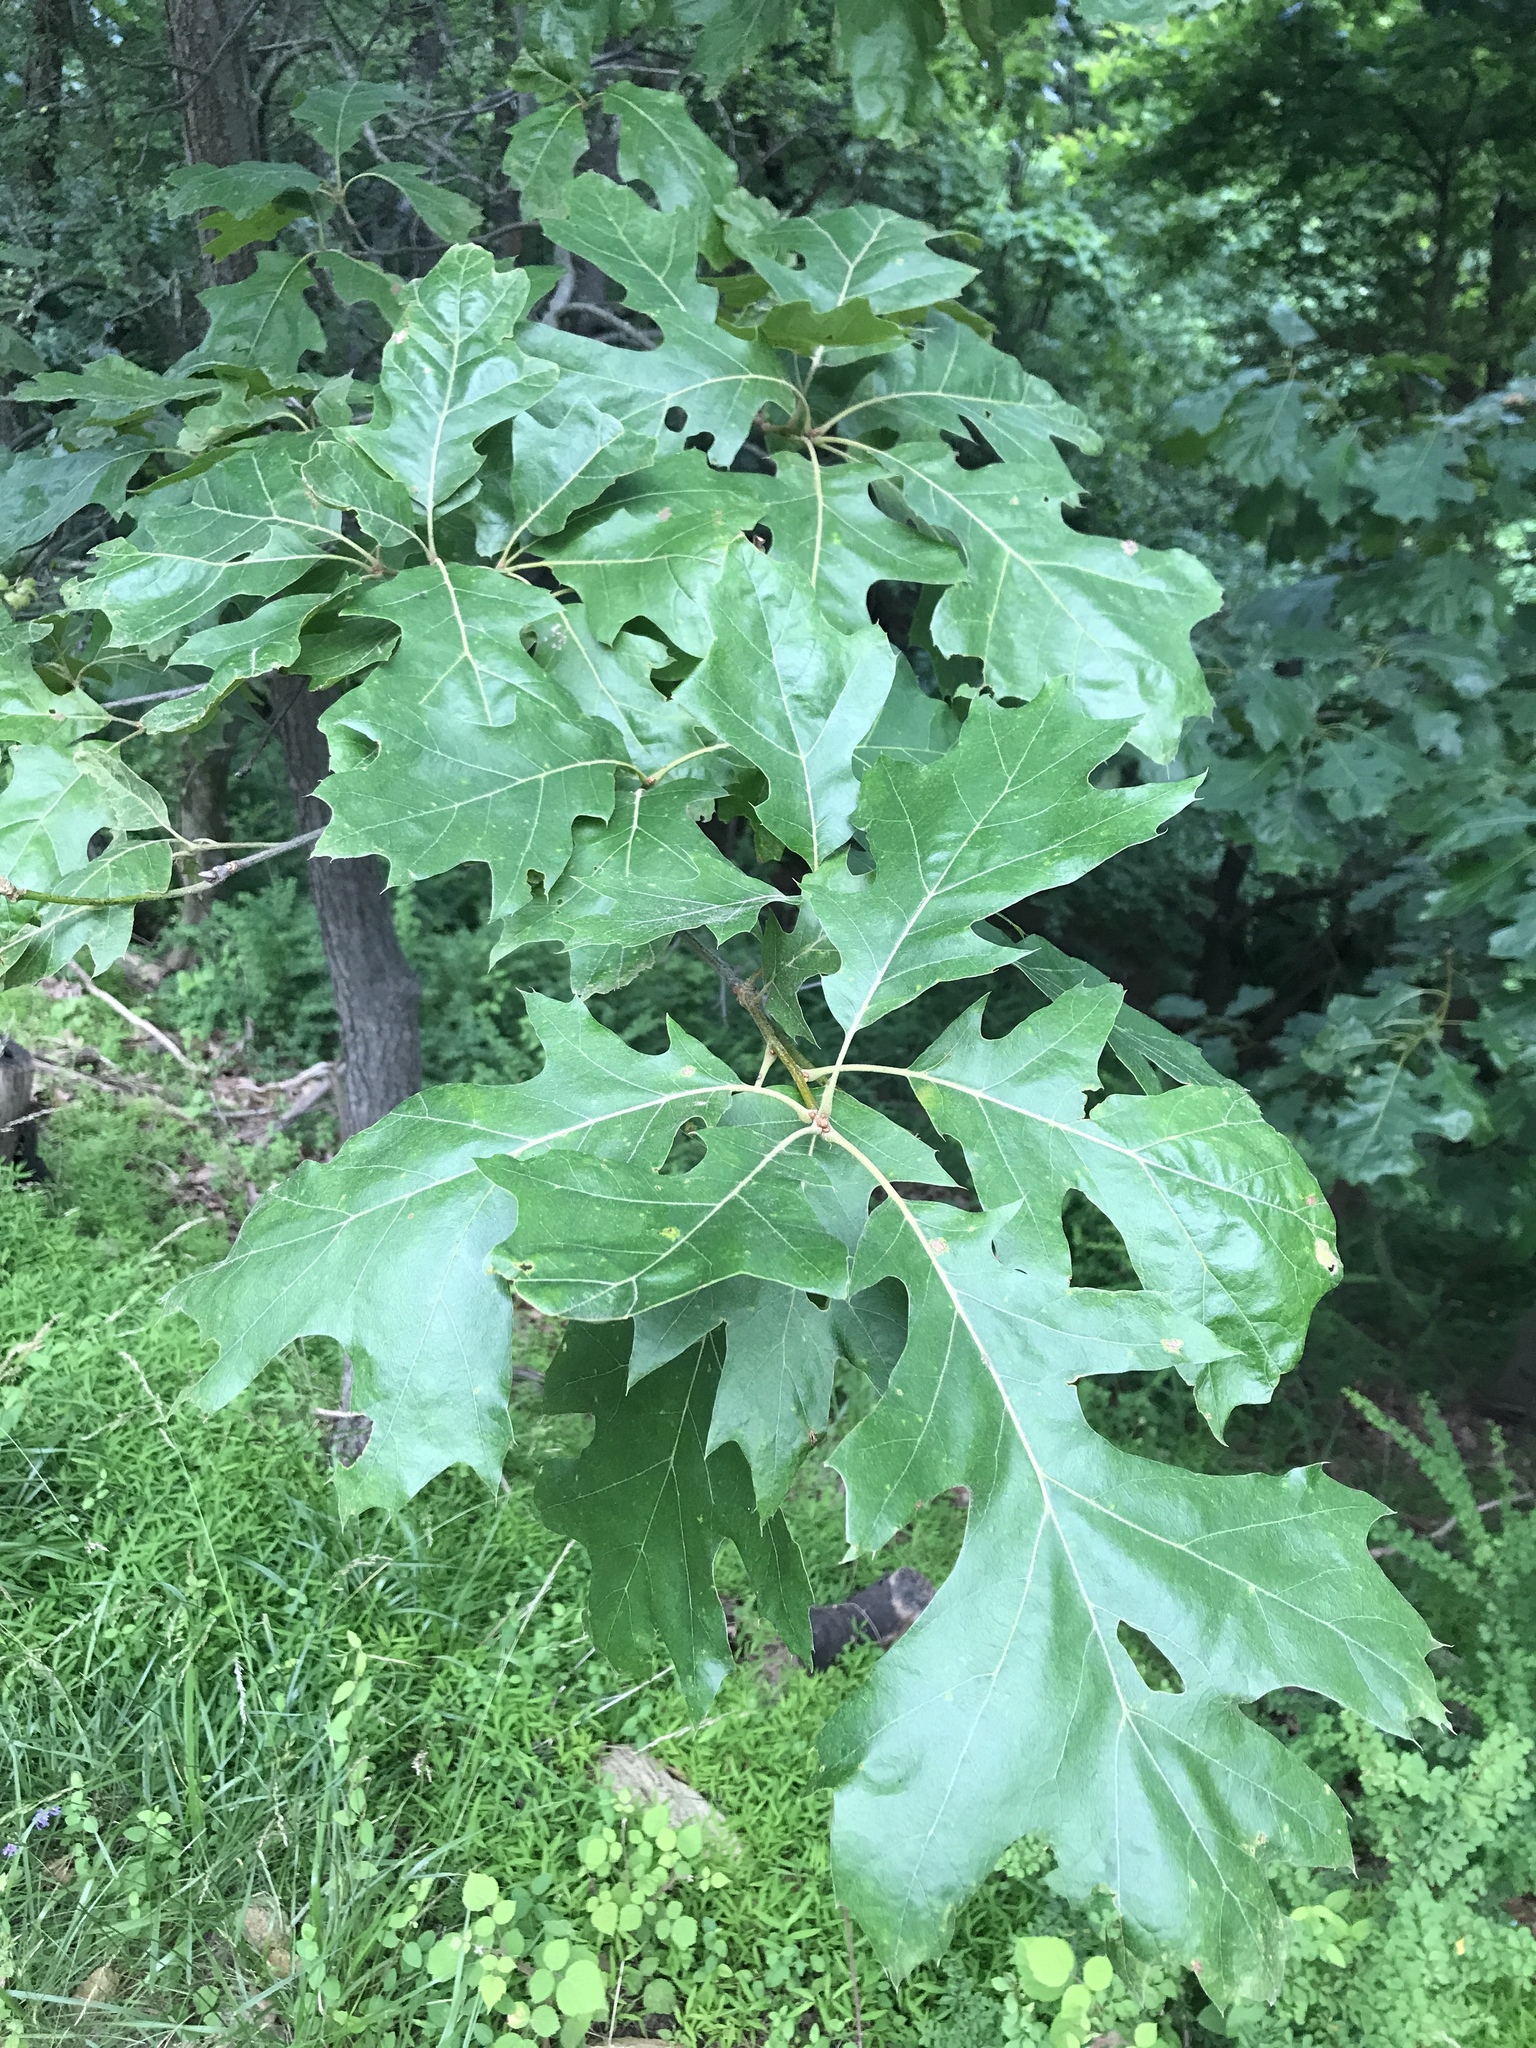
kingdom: Plantae
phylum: Tracheophyta
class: Magnoliopsida
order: Fagales
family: Fagaceae
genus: Quercus
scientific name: Quercus velutina
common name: Black oak
